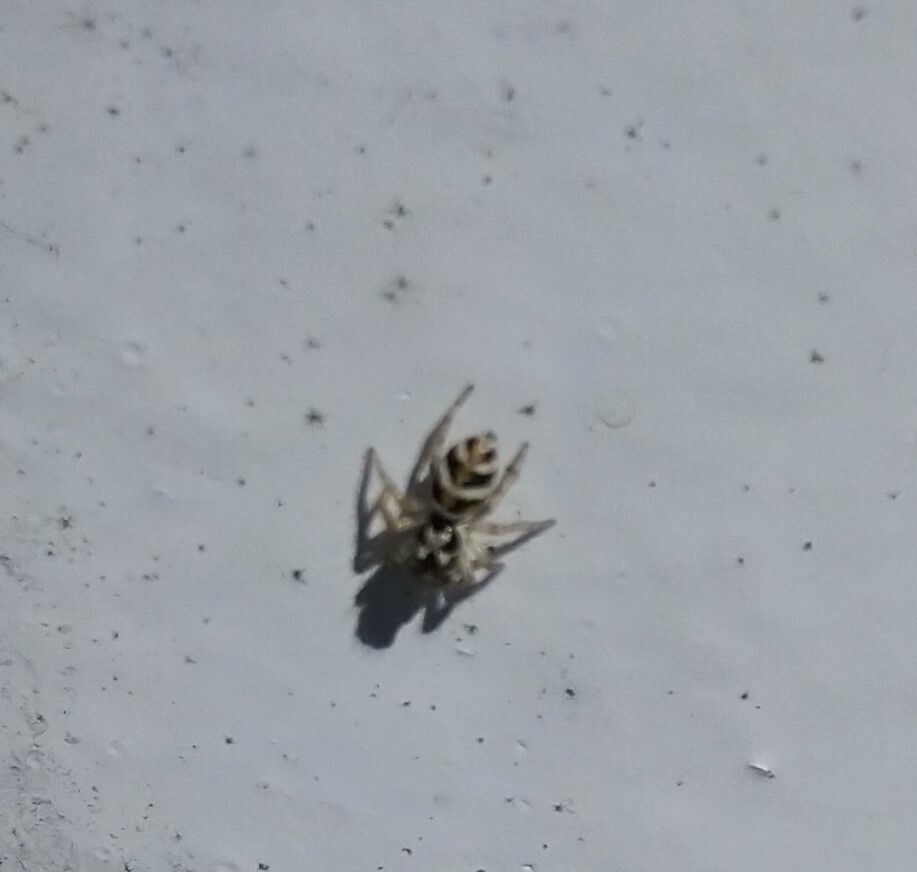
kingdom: Animalia
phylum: Arthropoda
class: Arachnida
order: Araneae
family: Salticidae
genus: Salticus
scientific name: Salticus scenicus
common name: Zebra jumper
